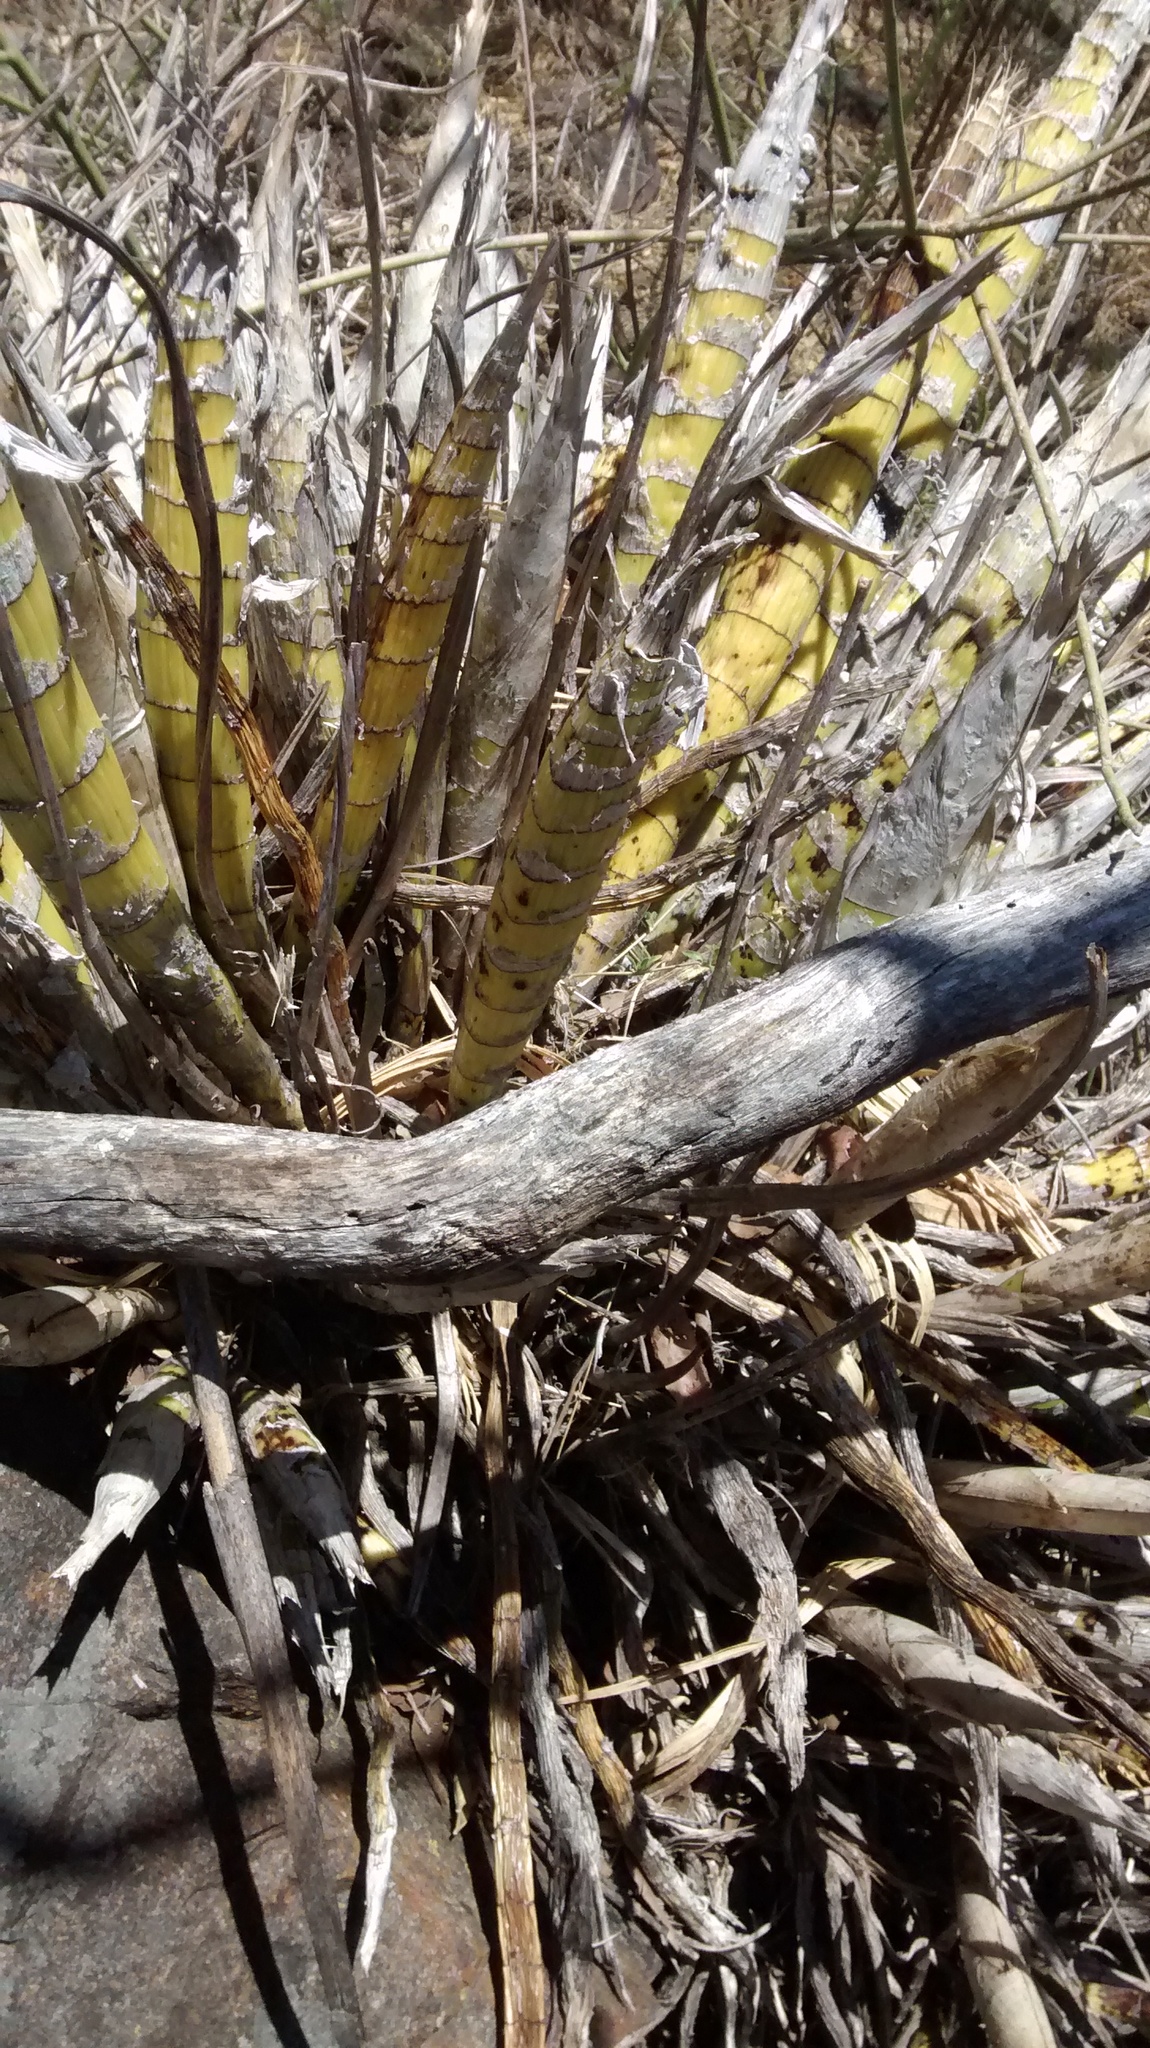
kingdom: Plantae
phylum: Tracheophyta
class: Liliopsida
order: Asparagales
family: Orchidaceae
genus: Cyrtopodium
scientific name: Cyrtopodium macrobulbon
